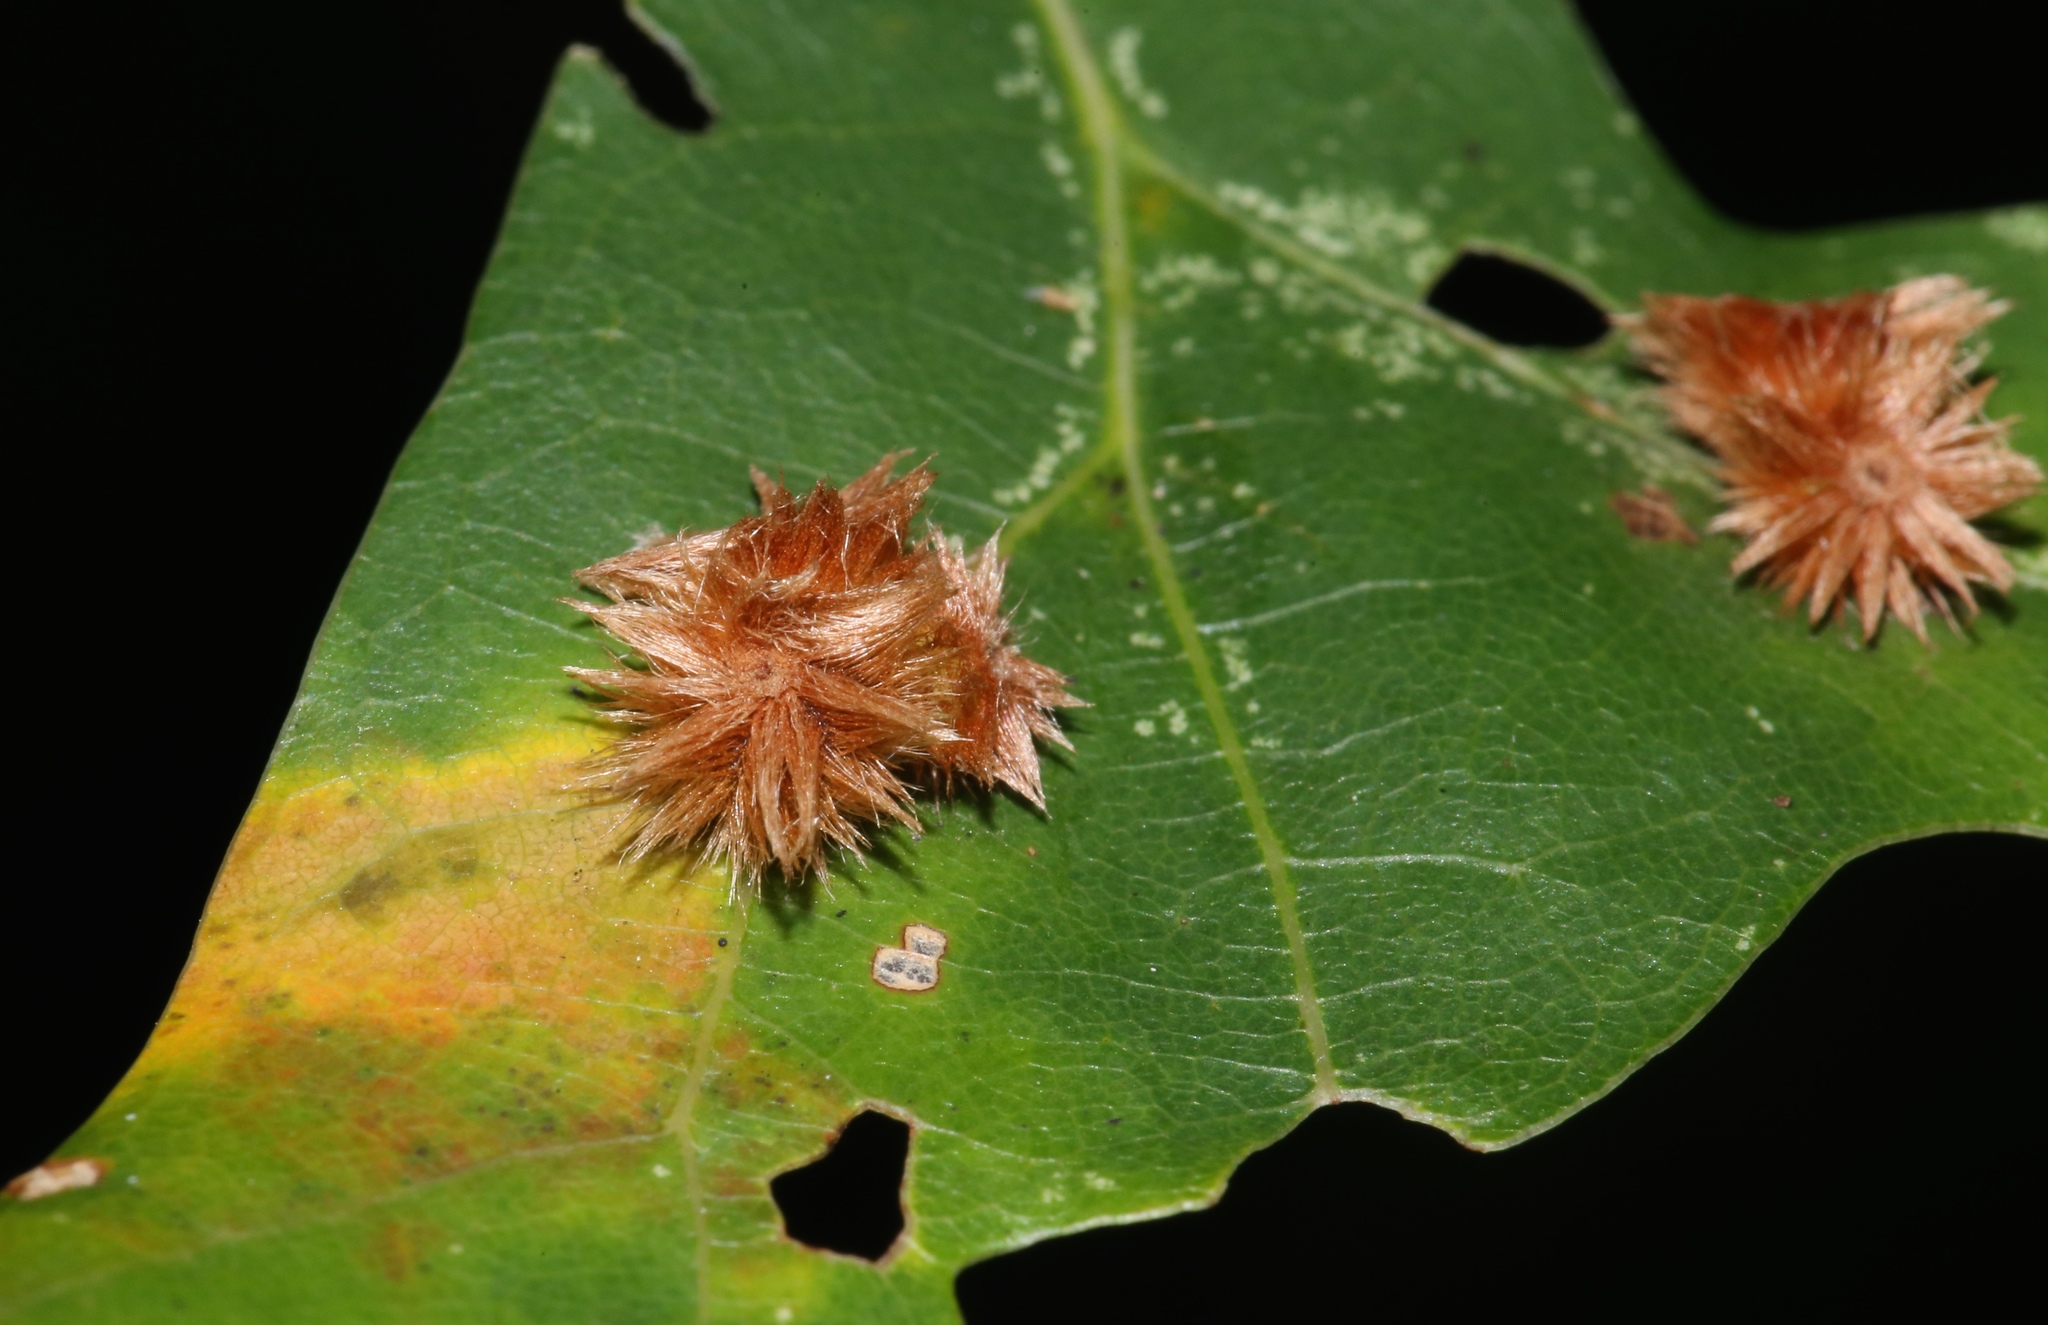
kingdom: Animalia
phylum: Arthropoda
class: Insecta
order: Hymenoptera
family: Cynipidae
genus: Callirhytis
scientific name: Callirhytis
